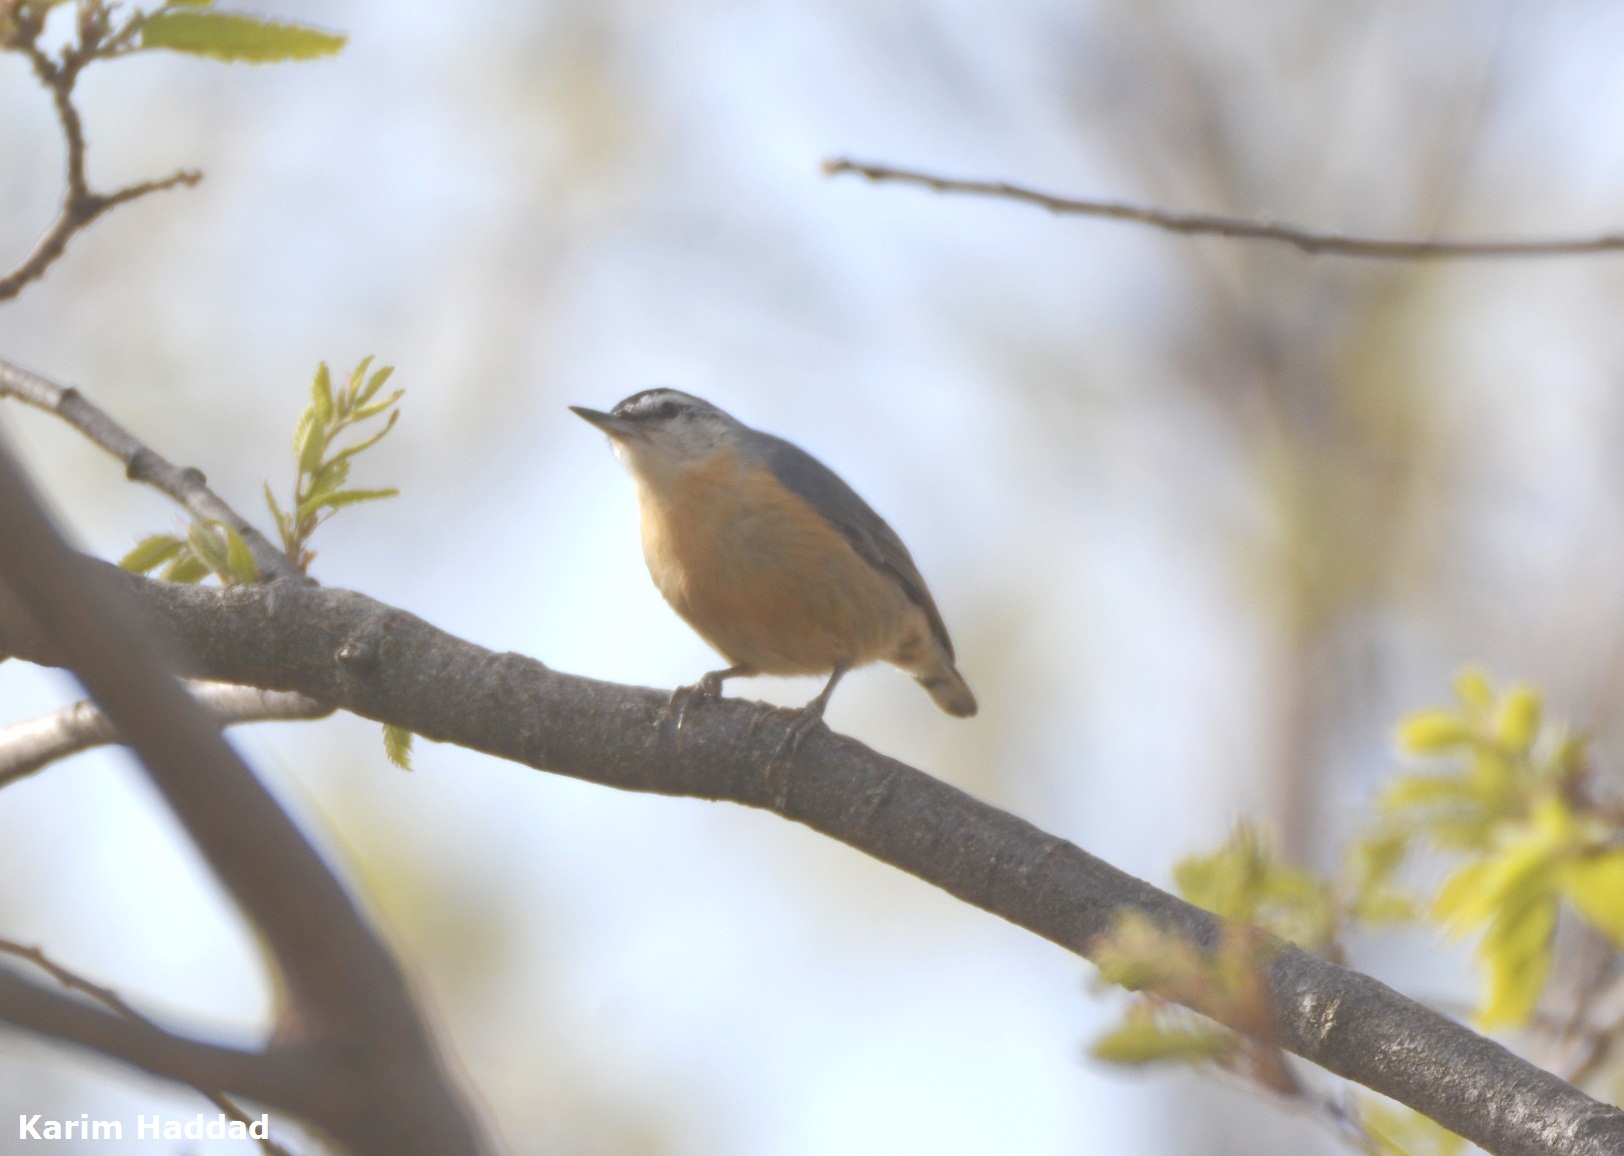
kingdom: Animalia
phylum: Chordata
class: Aves
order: Passeriformes
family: Sittidae
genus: Sitta
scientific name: Sitta ledanti
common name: Algerian nuthatch
